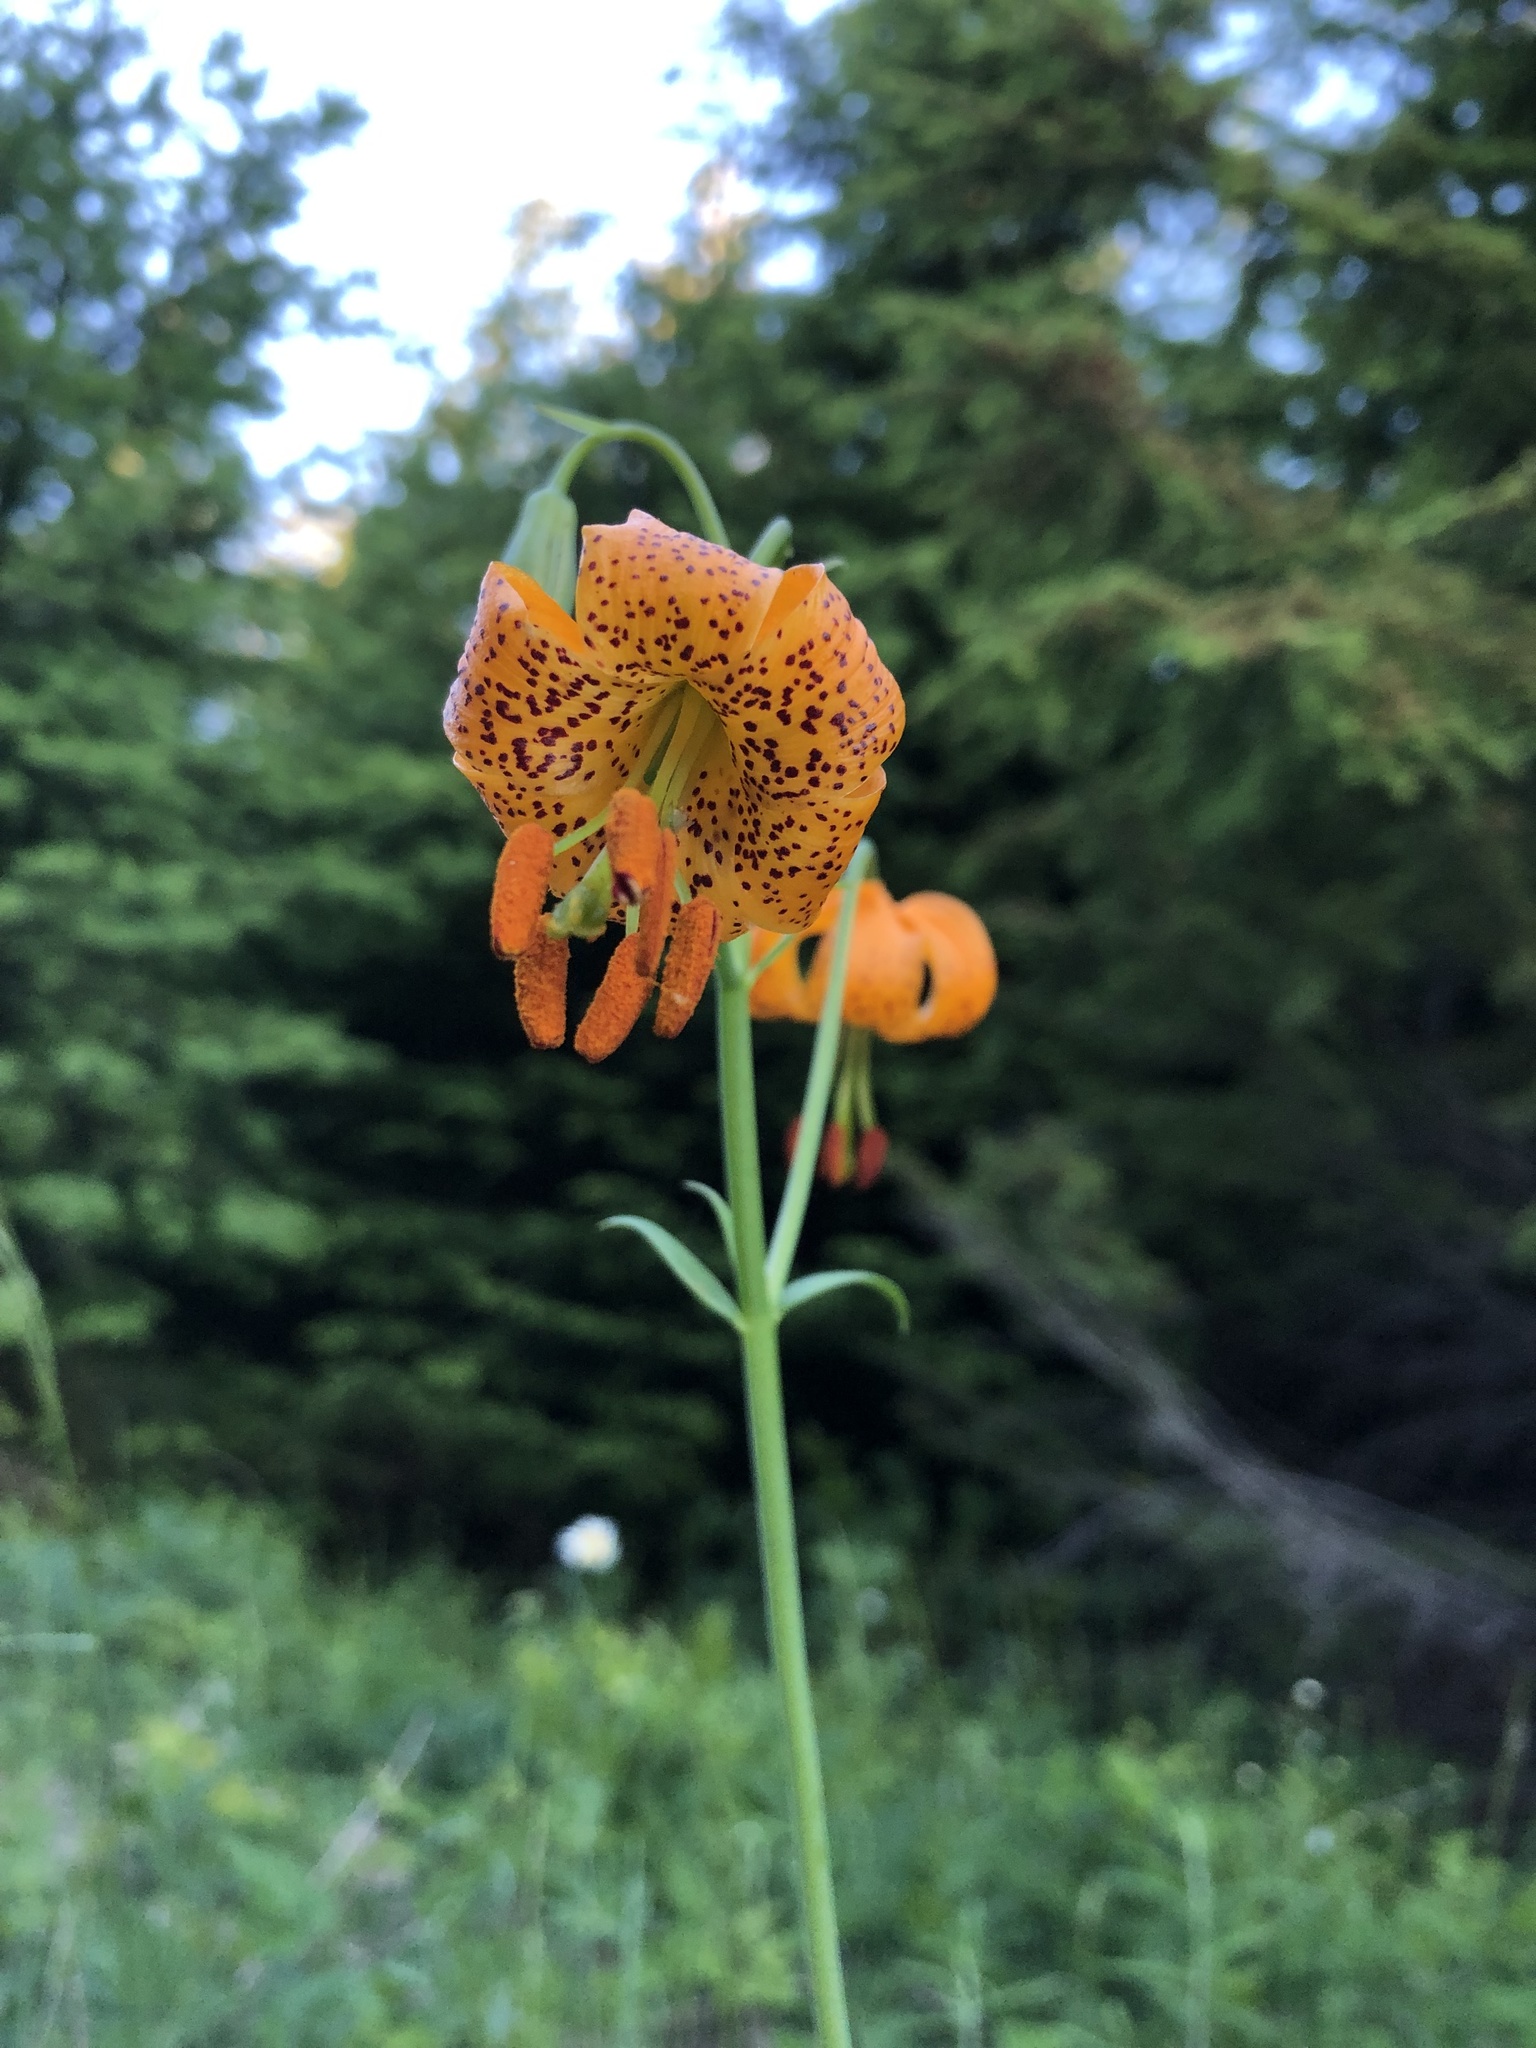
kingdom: Plantae
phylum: Tracheophyta
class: Liliopsida
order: Liliales
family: Liliaceae
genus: Lilium
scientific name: Lilium columbianum
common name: Columbia lily
